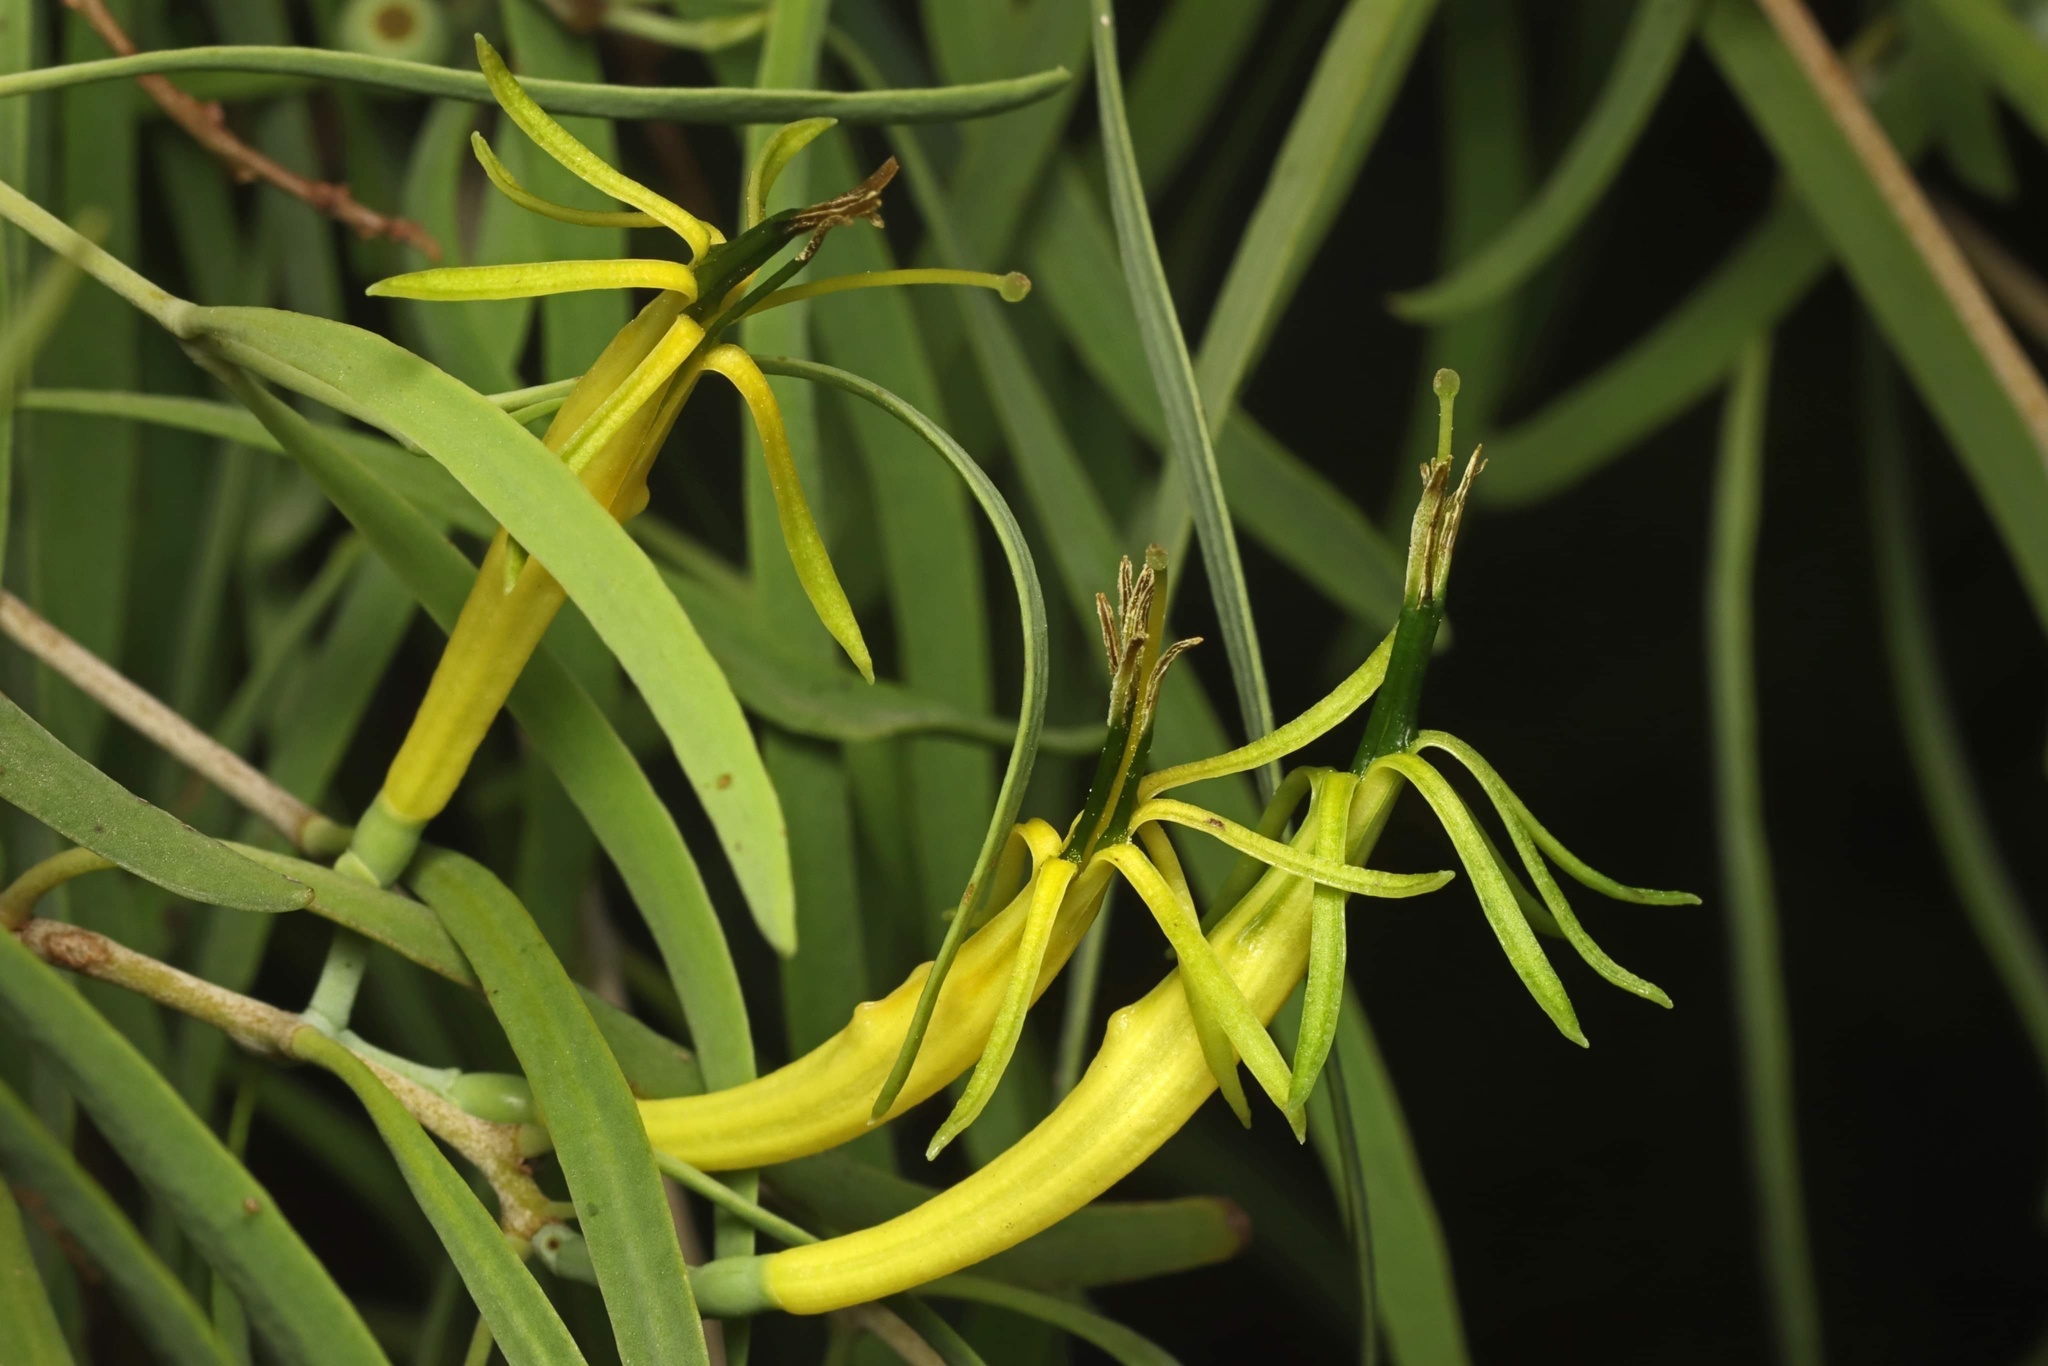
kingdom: Plantae
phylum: Tracheophyta
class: Magnoliopsida
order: Santalales
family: Loranthaceae
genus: Lysiana
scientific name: Lysiana exocarpi
